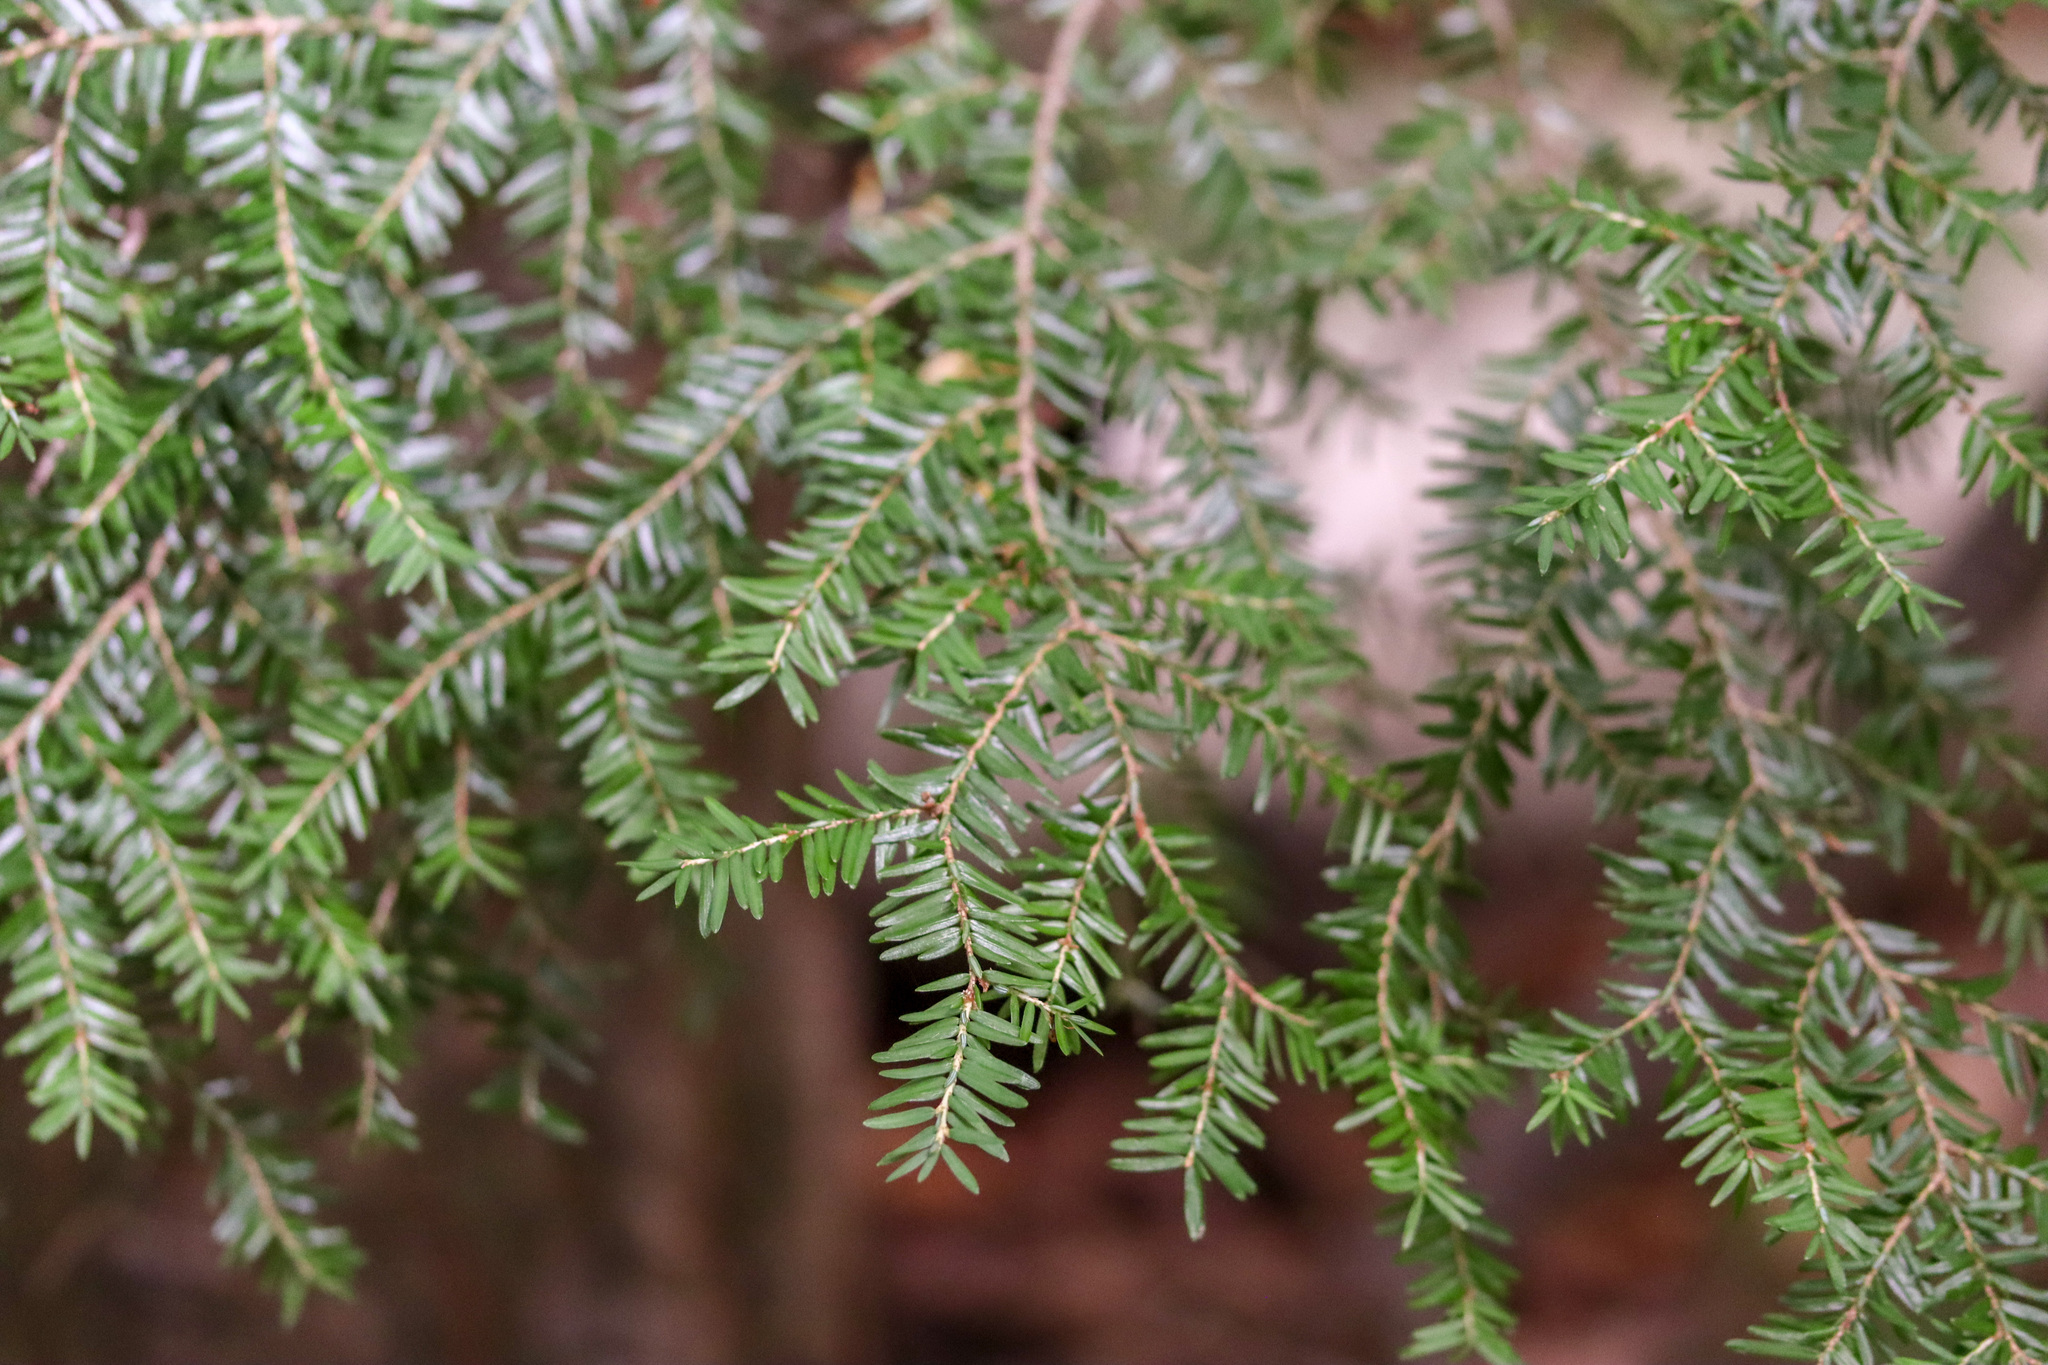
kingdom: Plantae
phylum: Tracheophyta
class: Pinopsida
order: Pinales
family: Pinaceae
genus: Tsuga
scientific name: Tsuga canadensis
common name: Eastern hemlock
